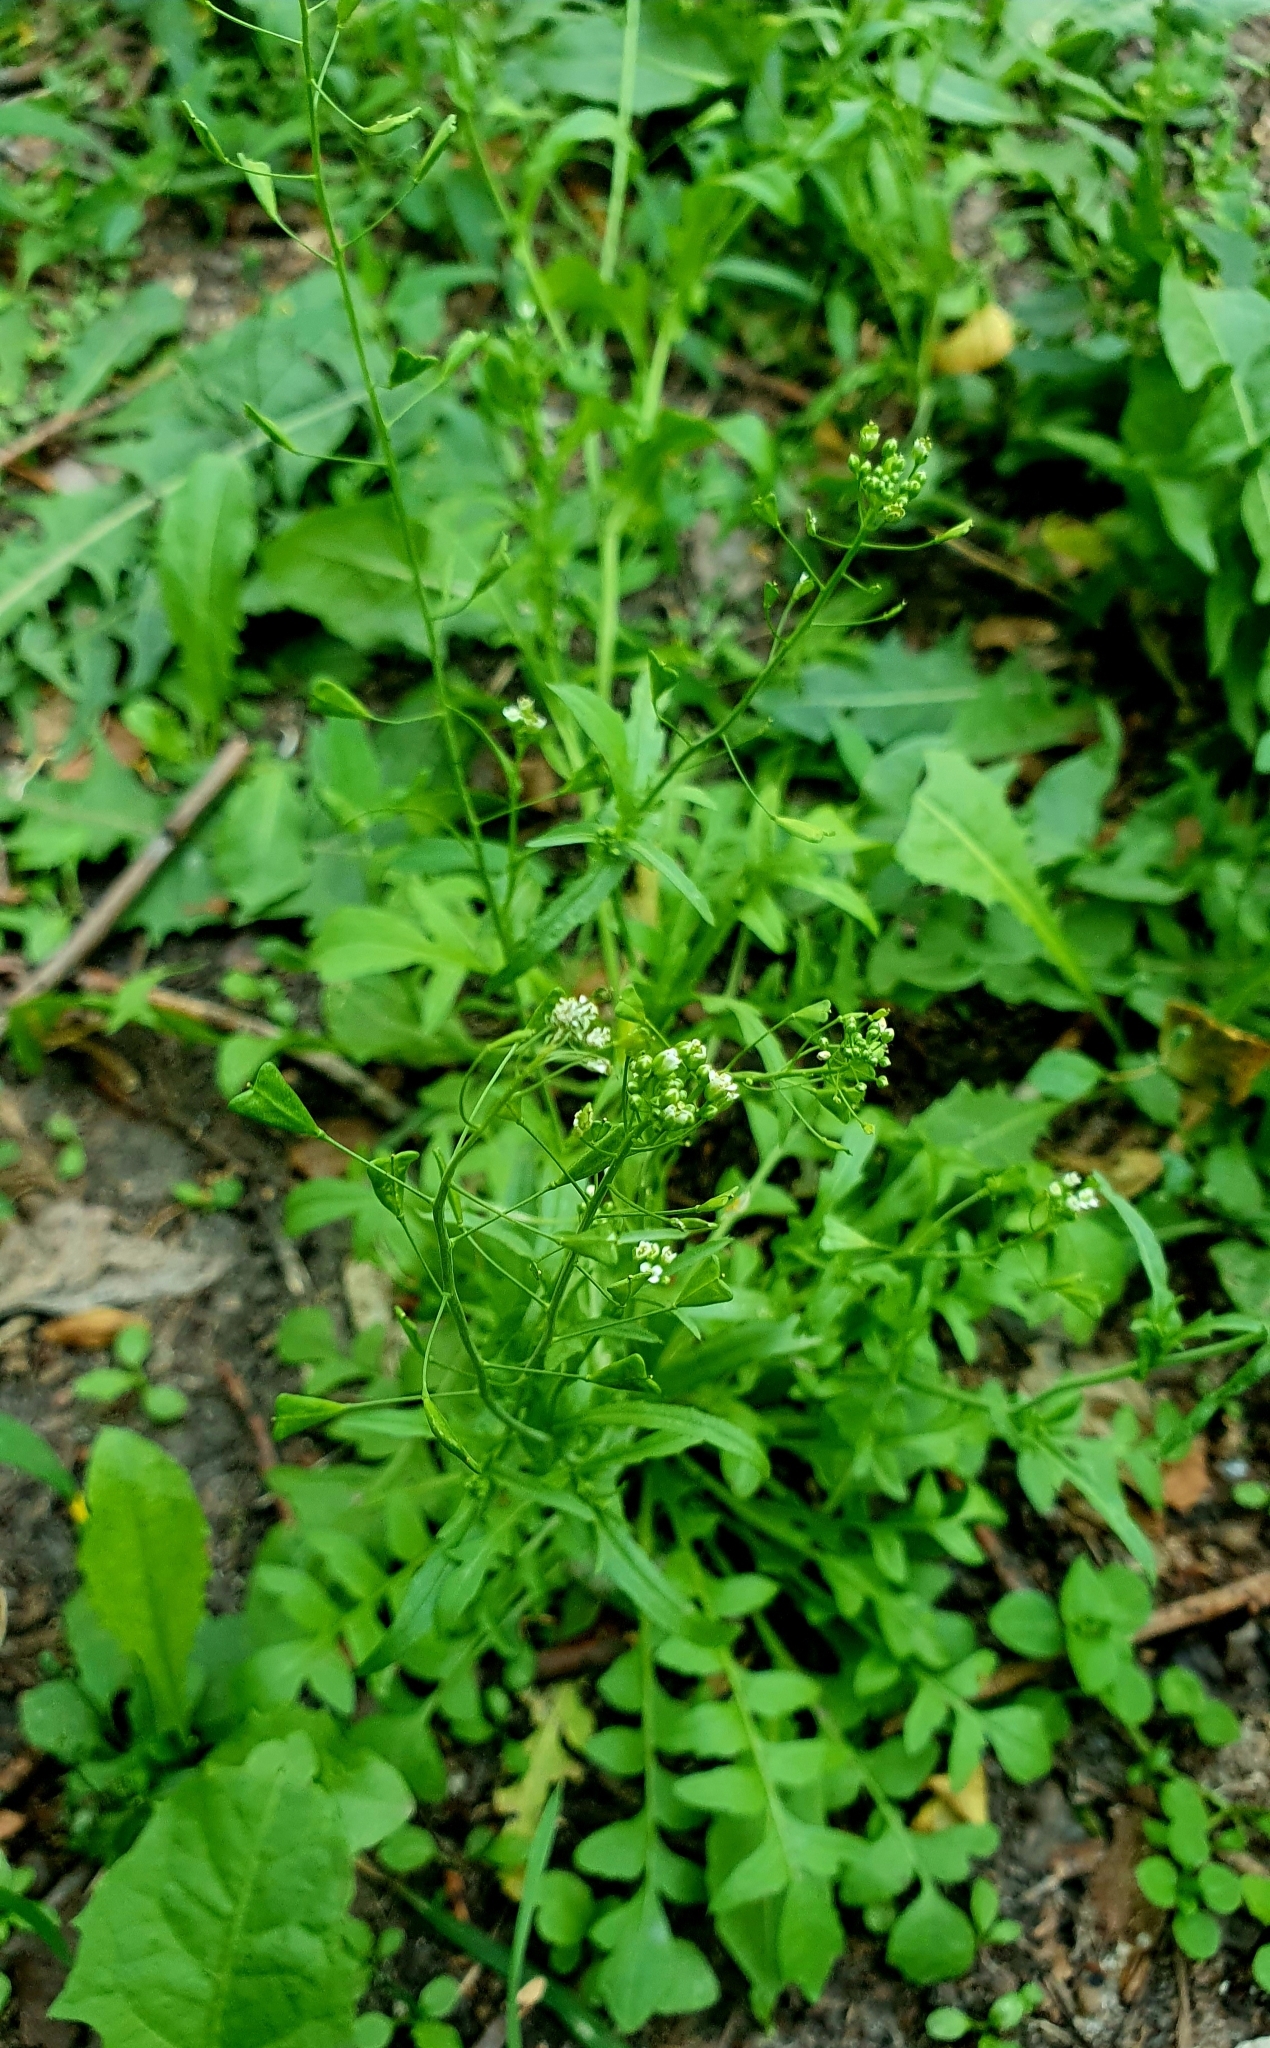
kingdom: Plantae
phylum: Tracheophyta
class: Magnoliopsida
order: Brassicales
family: Brassicaceae
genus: Capsella
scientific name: Capsella bursa-pastoris
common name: Shepherd's purse
